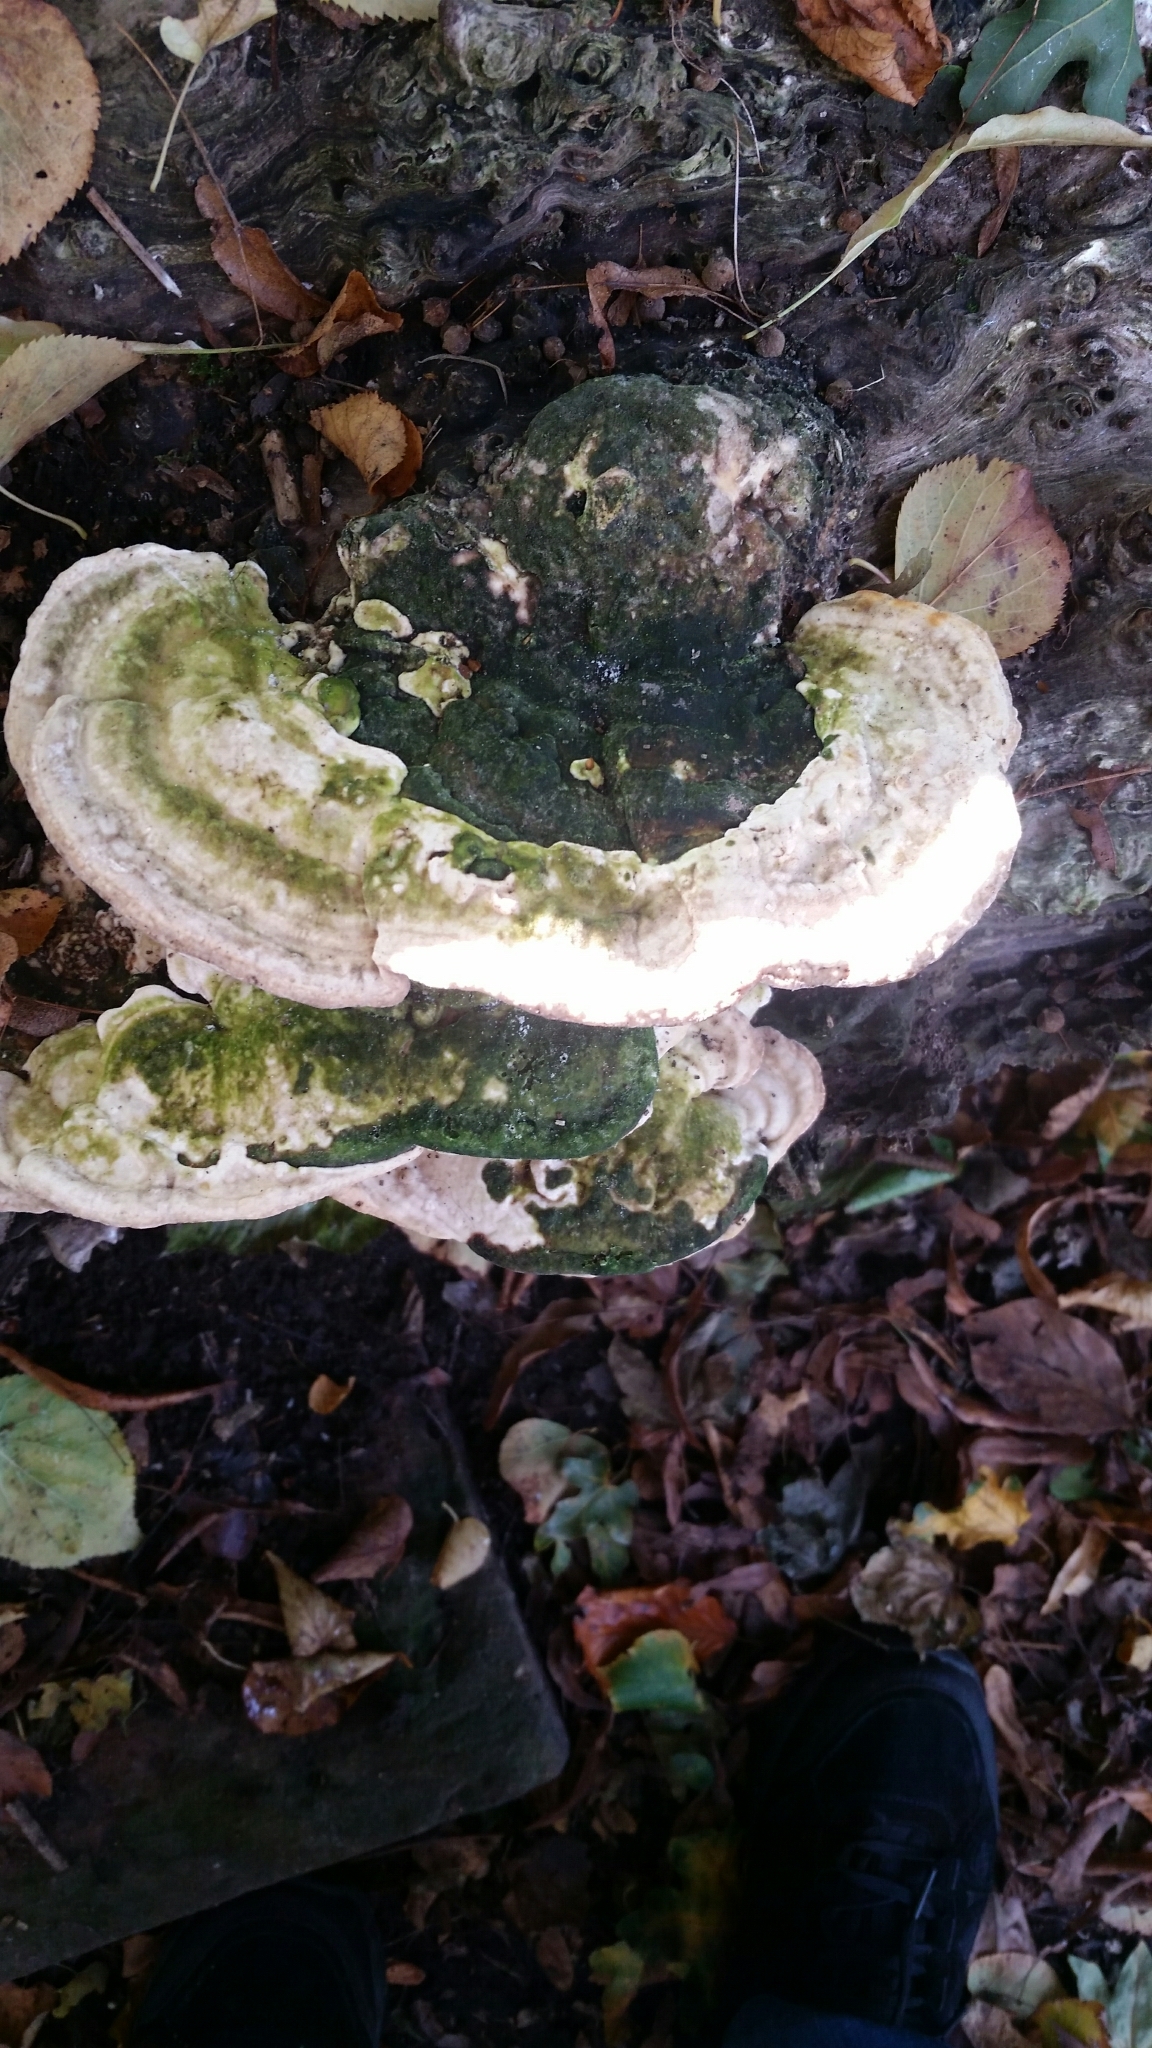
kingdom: Fungi
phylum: Basidiomycota
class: Agaricomycetes
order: Polyporales
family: Polyporaceae
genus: Trametes
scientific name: Trametes gibbosa
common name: Lumpy bracket
